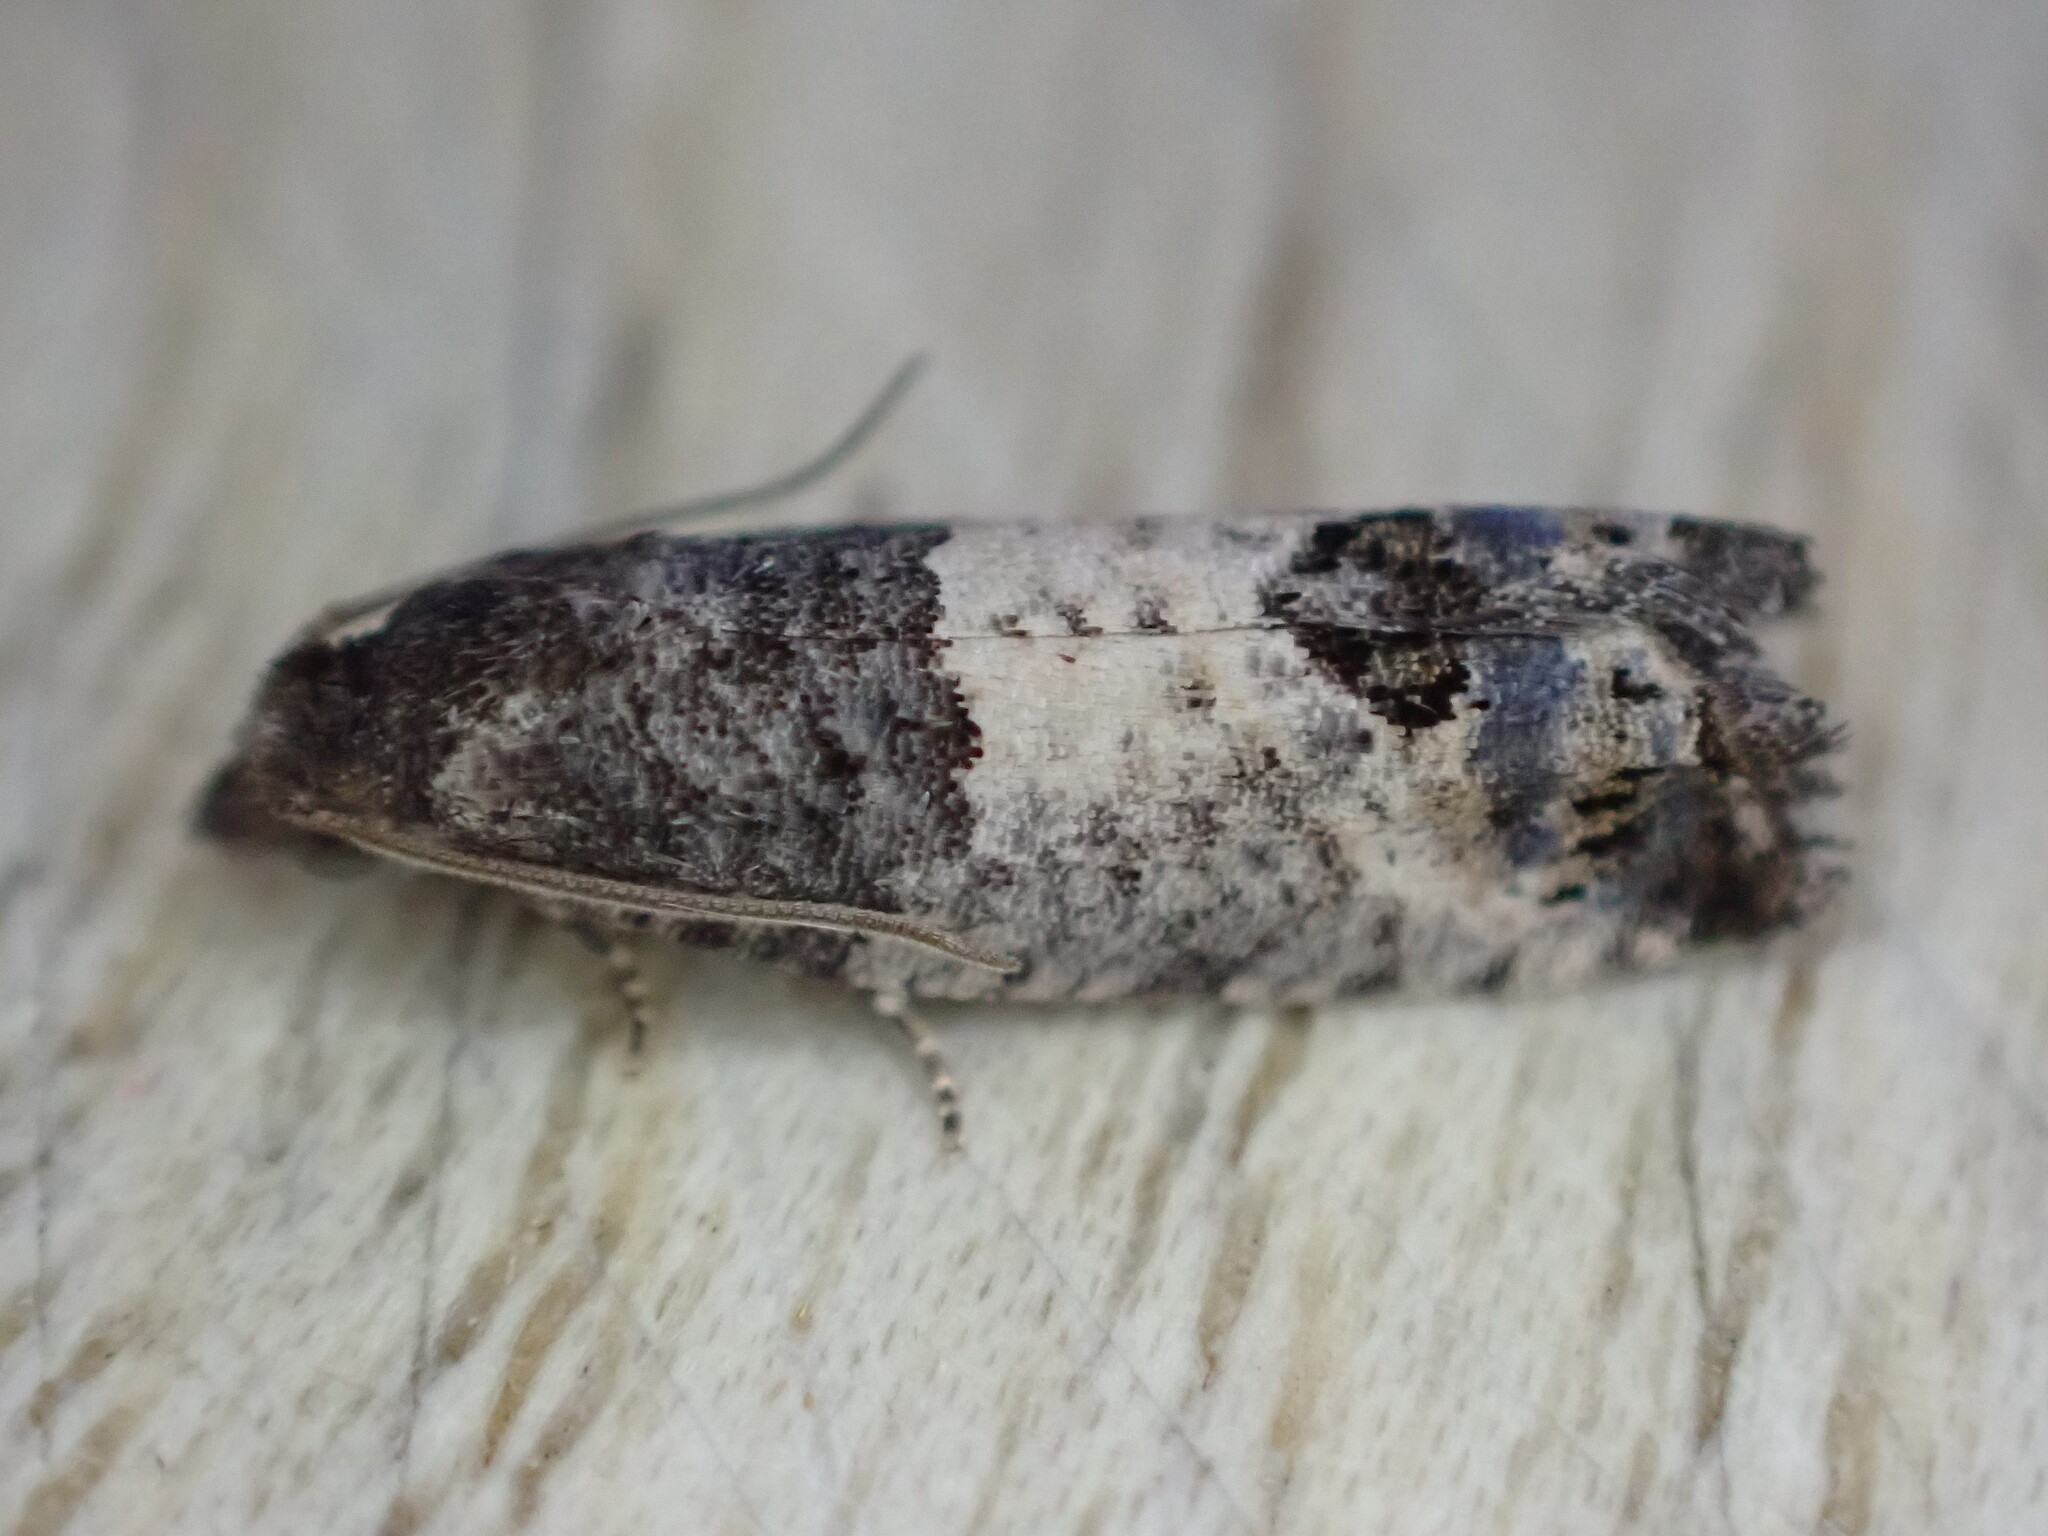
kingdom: Animalia
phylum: Arthropoda
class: Insecta
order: Lepidoptera
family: Tortricidae
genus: Spilonota
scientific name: Spilonota ocellana
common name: Bud moth
